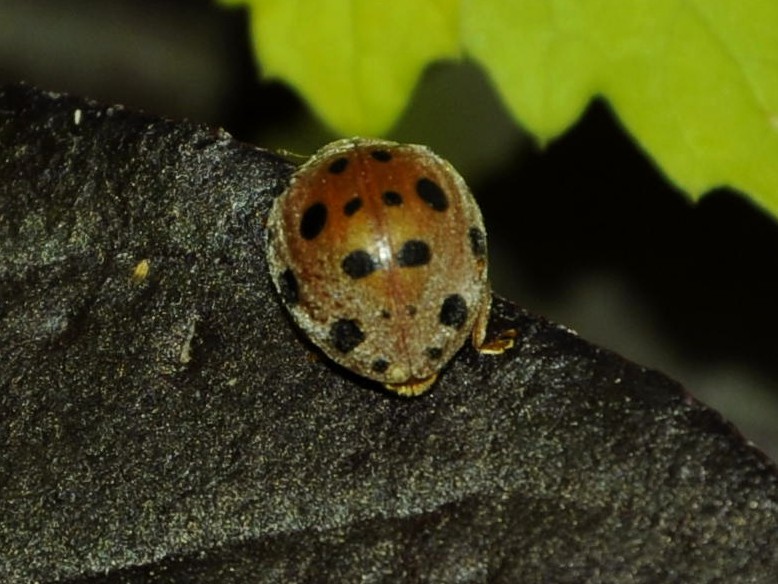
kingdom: Animalia
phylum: Arthropoda
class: Insecta
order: Coleoptera
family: Coccinellidae
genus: Henosepilachna
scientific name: Henosepilachna vigintioctopunctata
